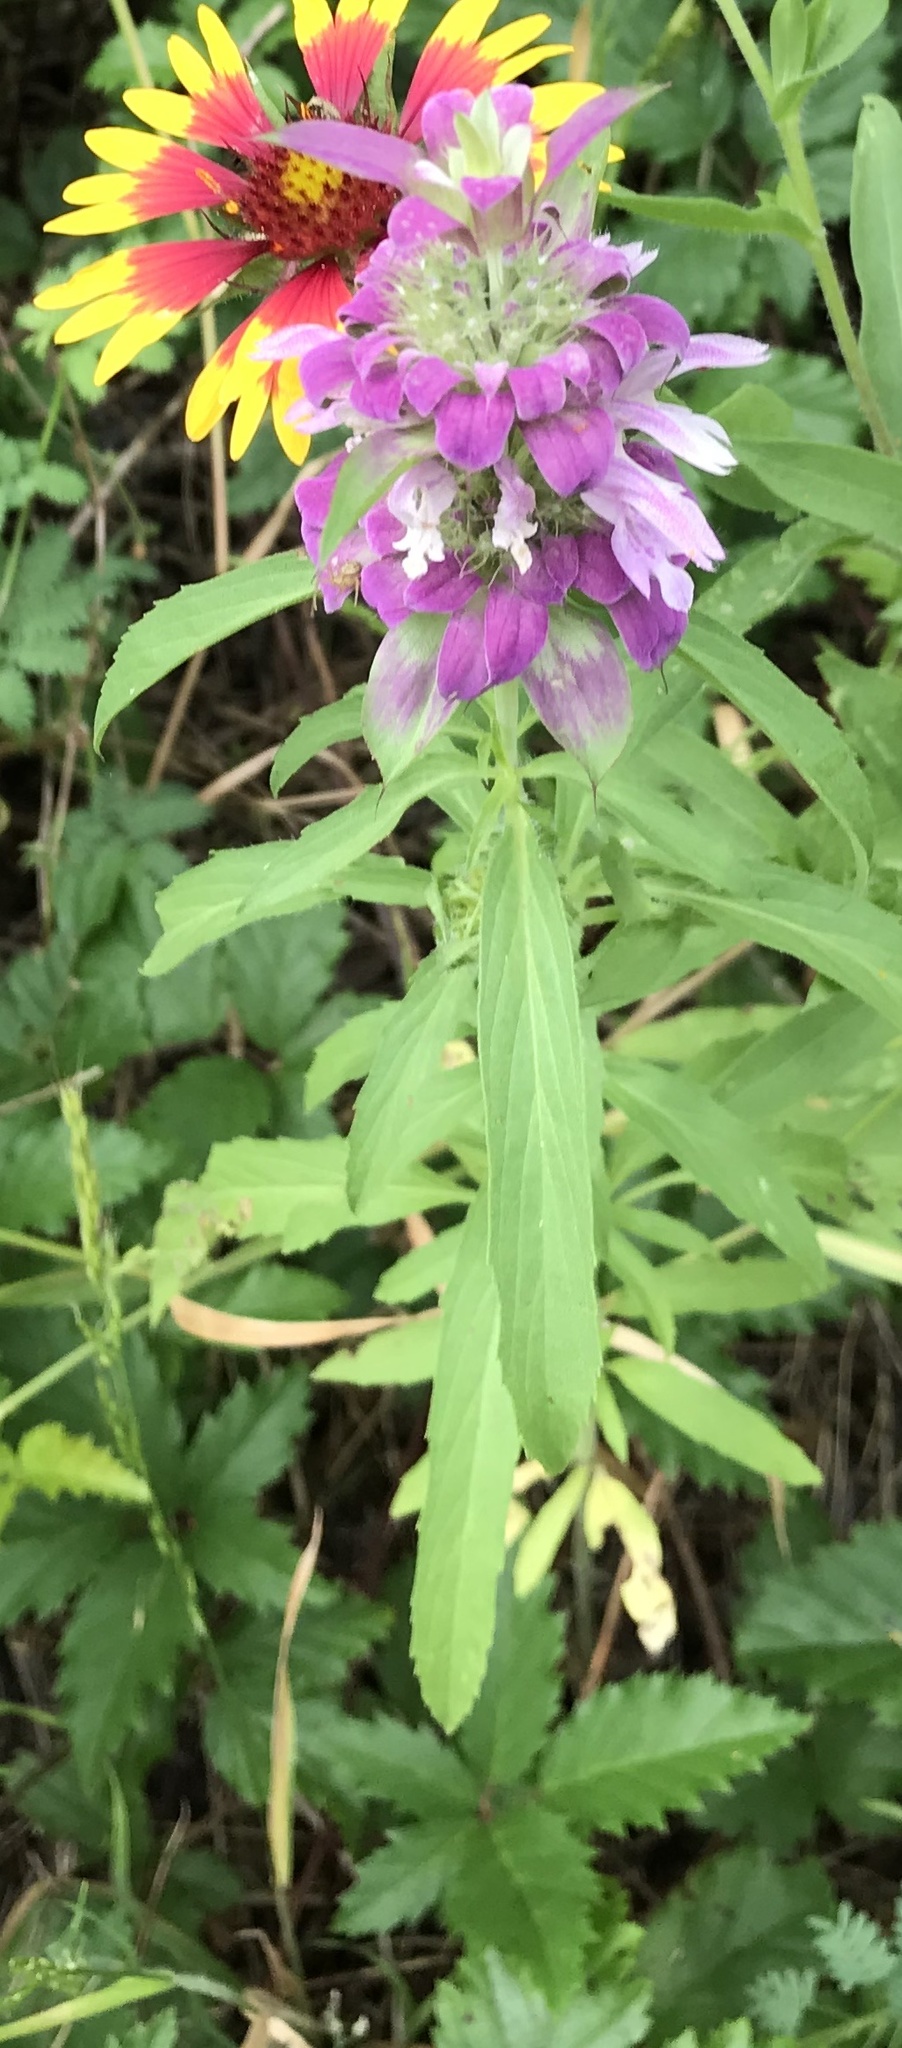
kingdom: Plantae
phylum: Tracheophyta
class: Magnoliopsida
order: Lamiales
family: Lamiaceae
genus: Monarda
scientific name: Monarda citriodora
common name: Lemon beebalm
